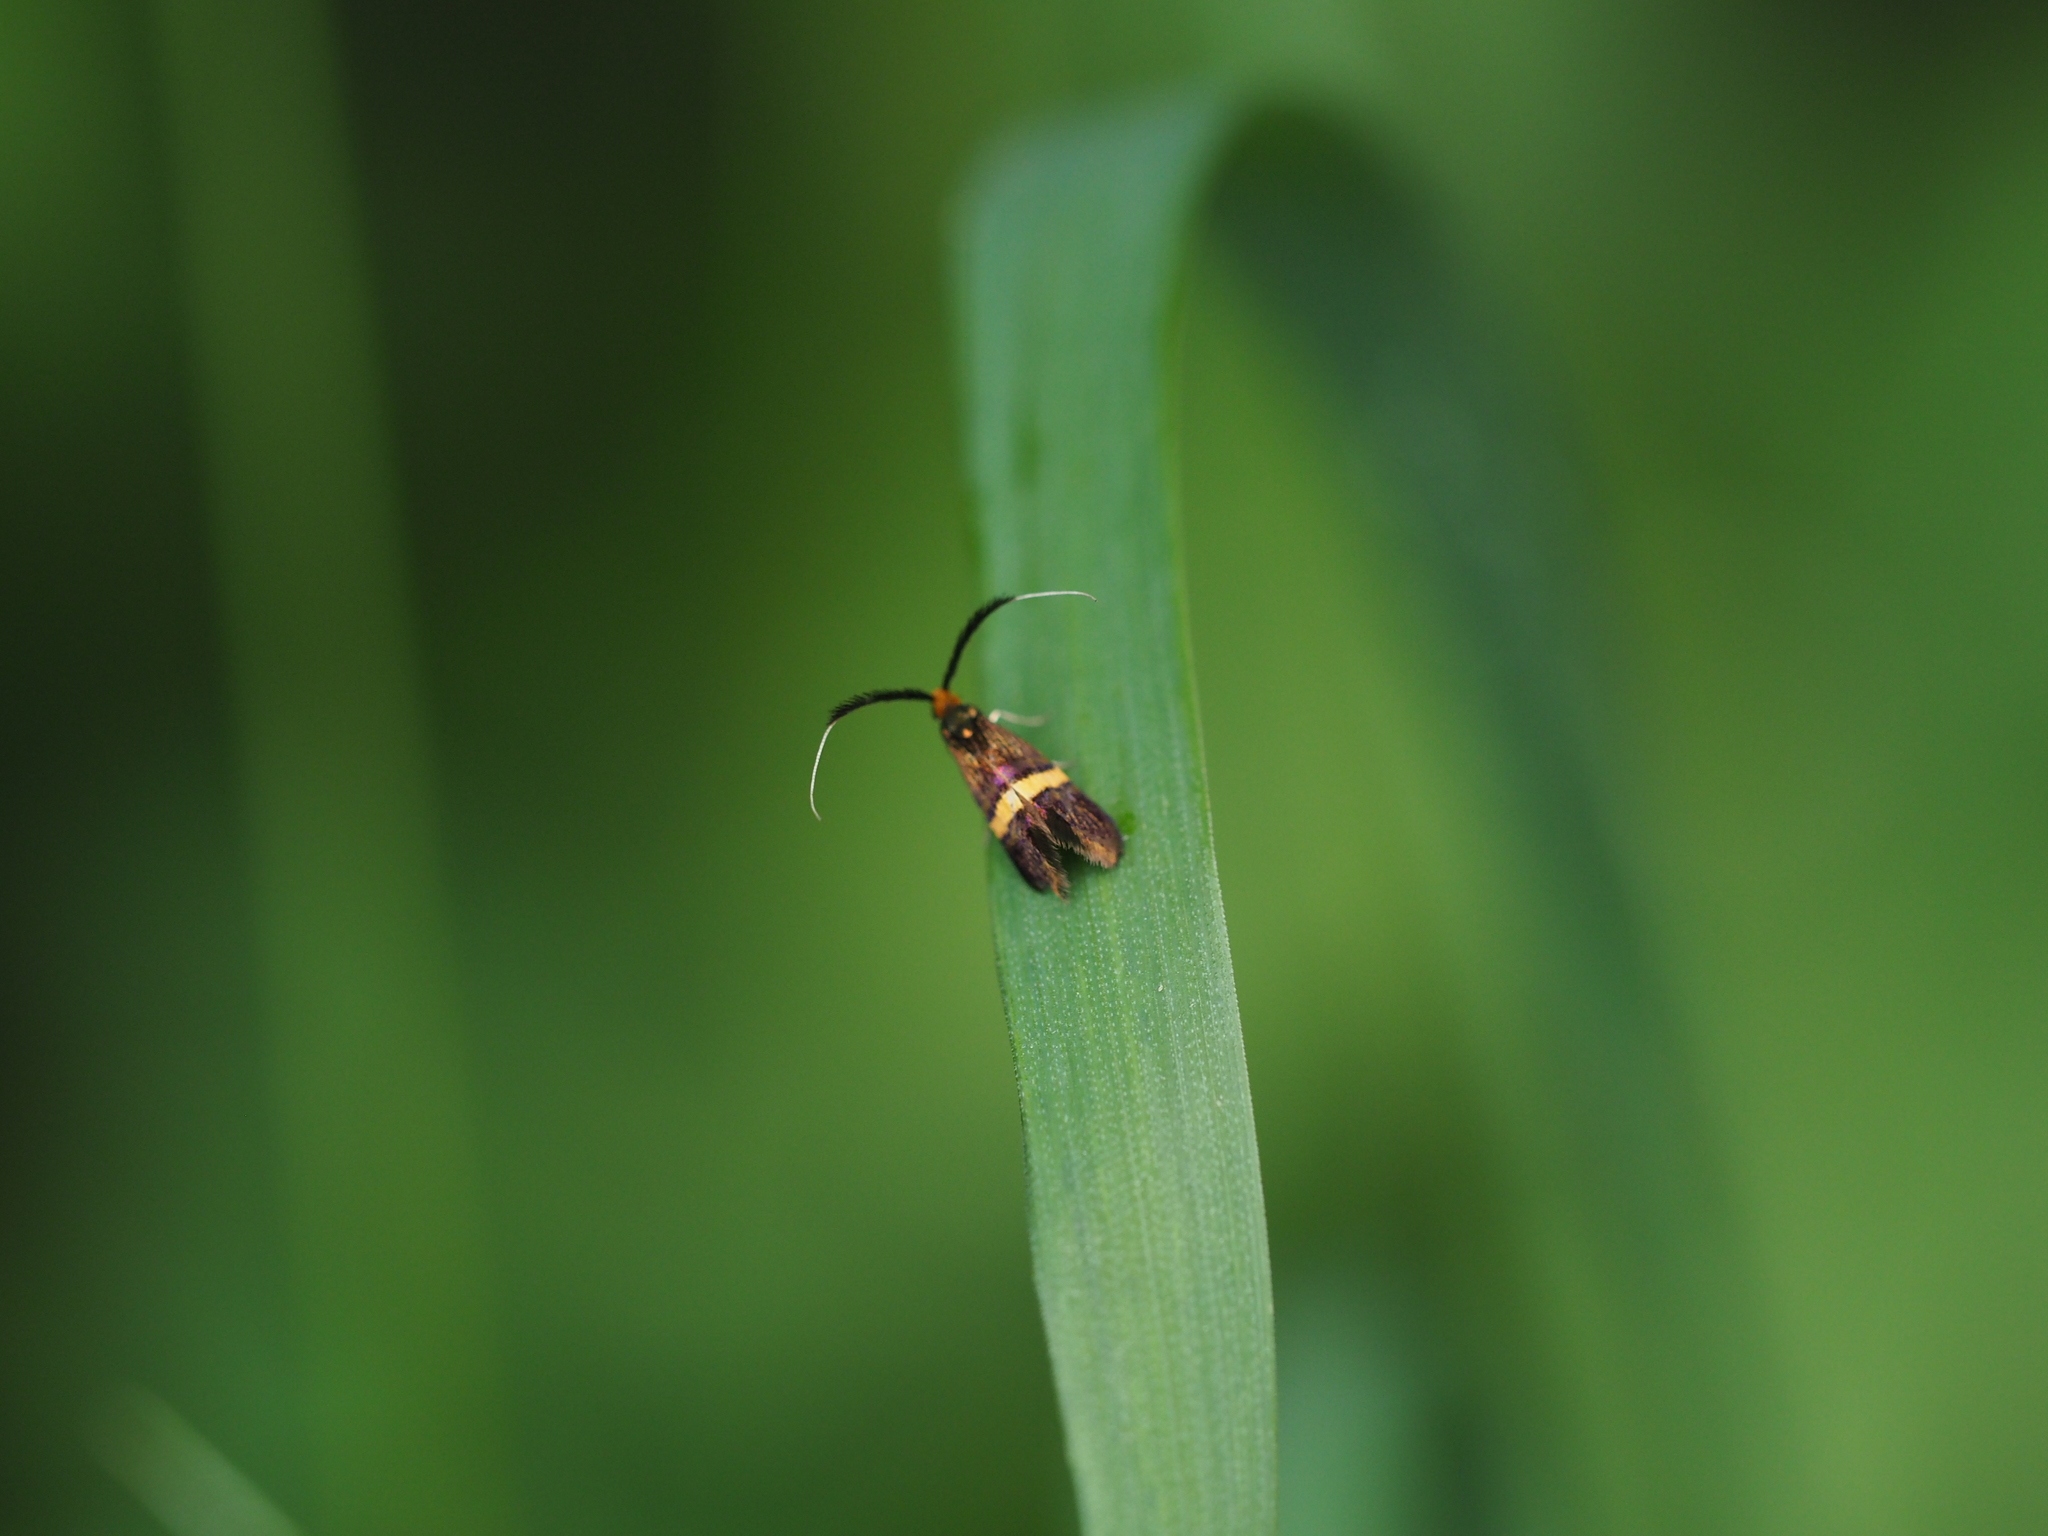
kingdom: Animalia
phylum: Arthropoda
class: Insecta
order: Lepidoptera
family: Adelidae
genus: Adela
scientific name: Adela croesella
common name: Small barred long-horn
